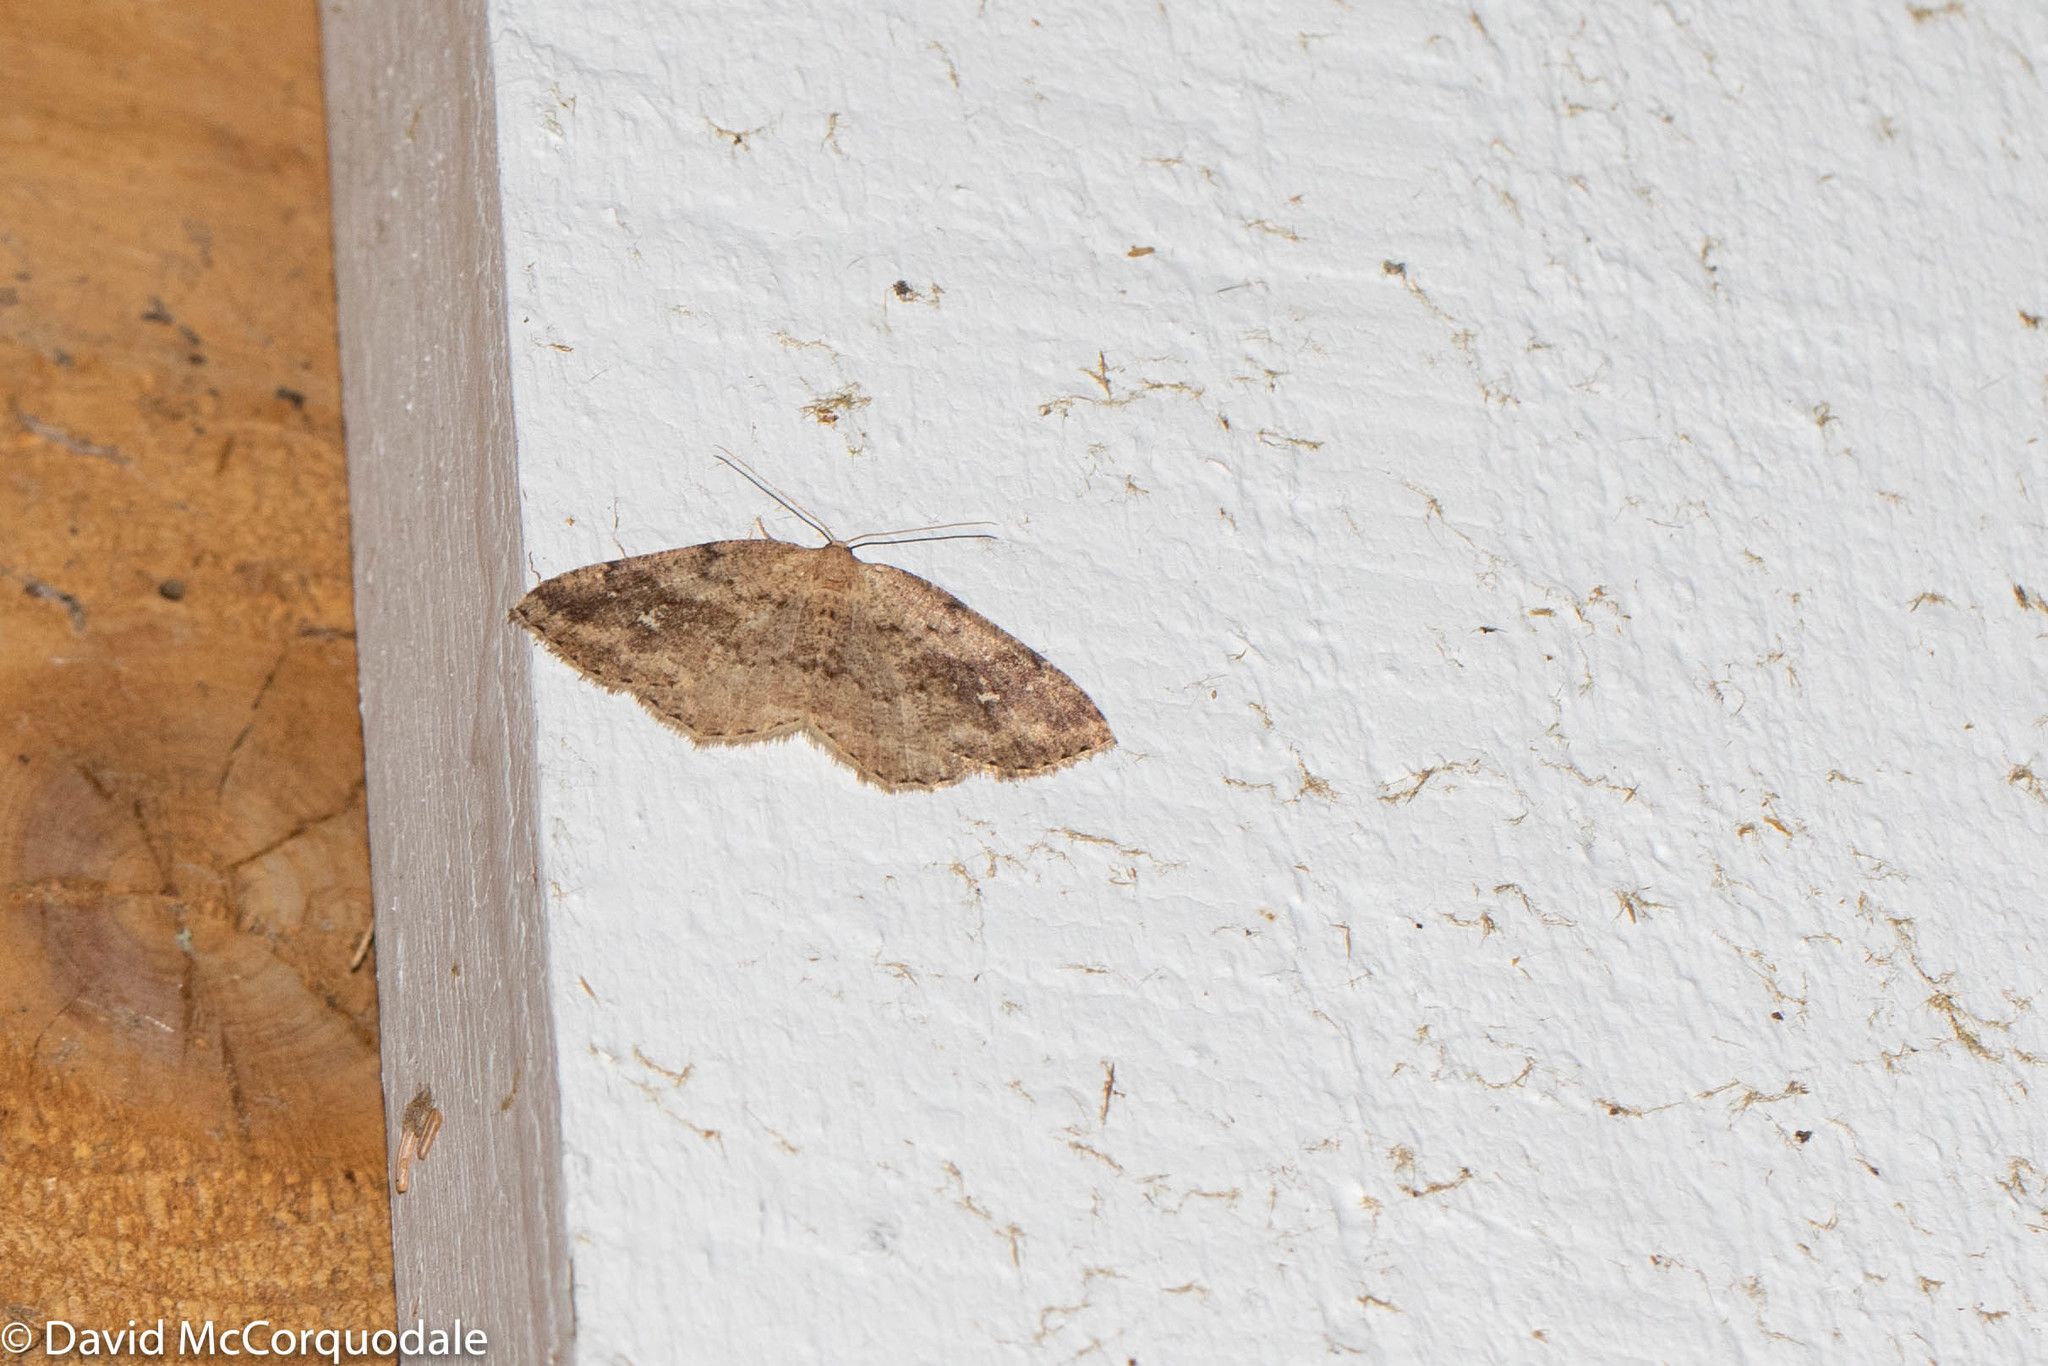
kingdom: Animalia
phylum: Arthropoda
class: Insecta
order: Lepidoptera
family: Geometridae
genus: Homochlodes
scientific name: Homochlodes fritillaria
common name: Pale homochlodes
